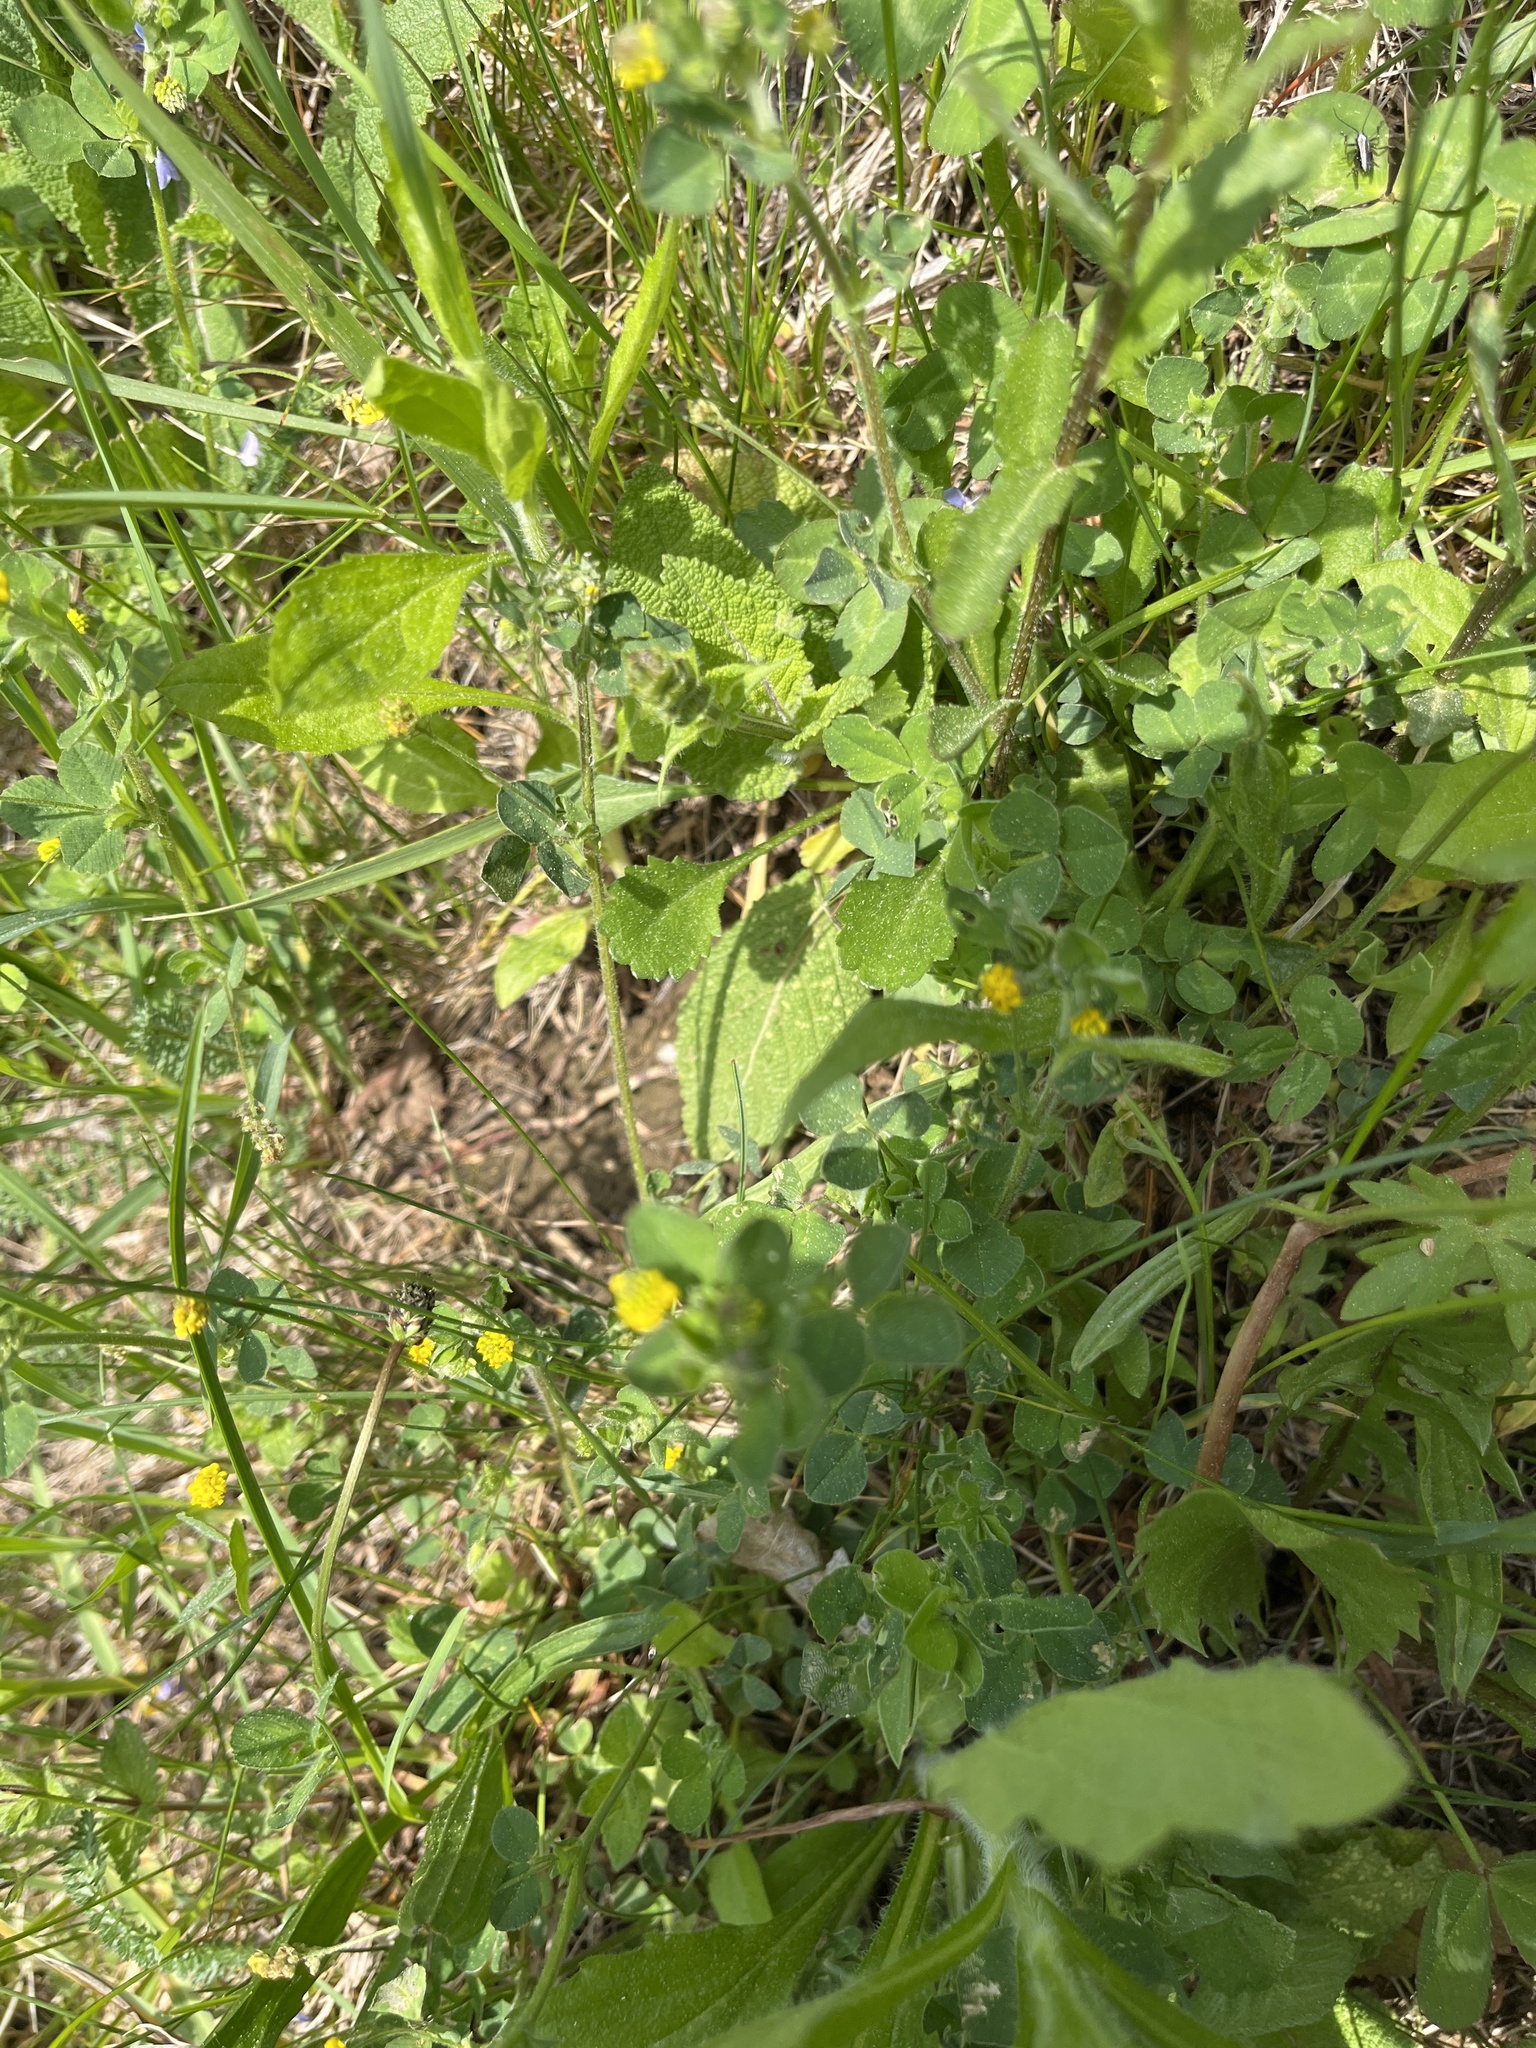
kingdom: Plantae
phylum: Tracheophyta
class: Magnoliopsida
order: Fabales
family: Fabaceae
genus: Medicago
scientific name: Medicago lupulina
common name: Black medick
